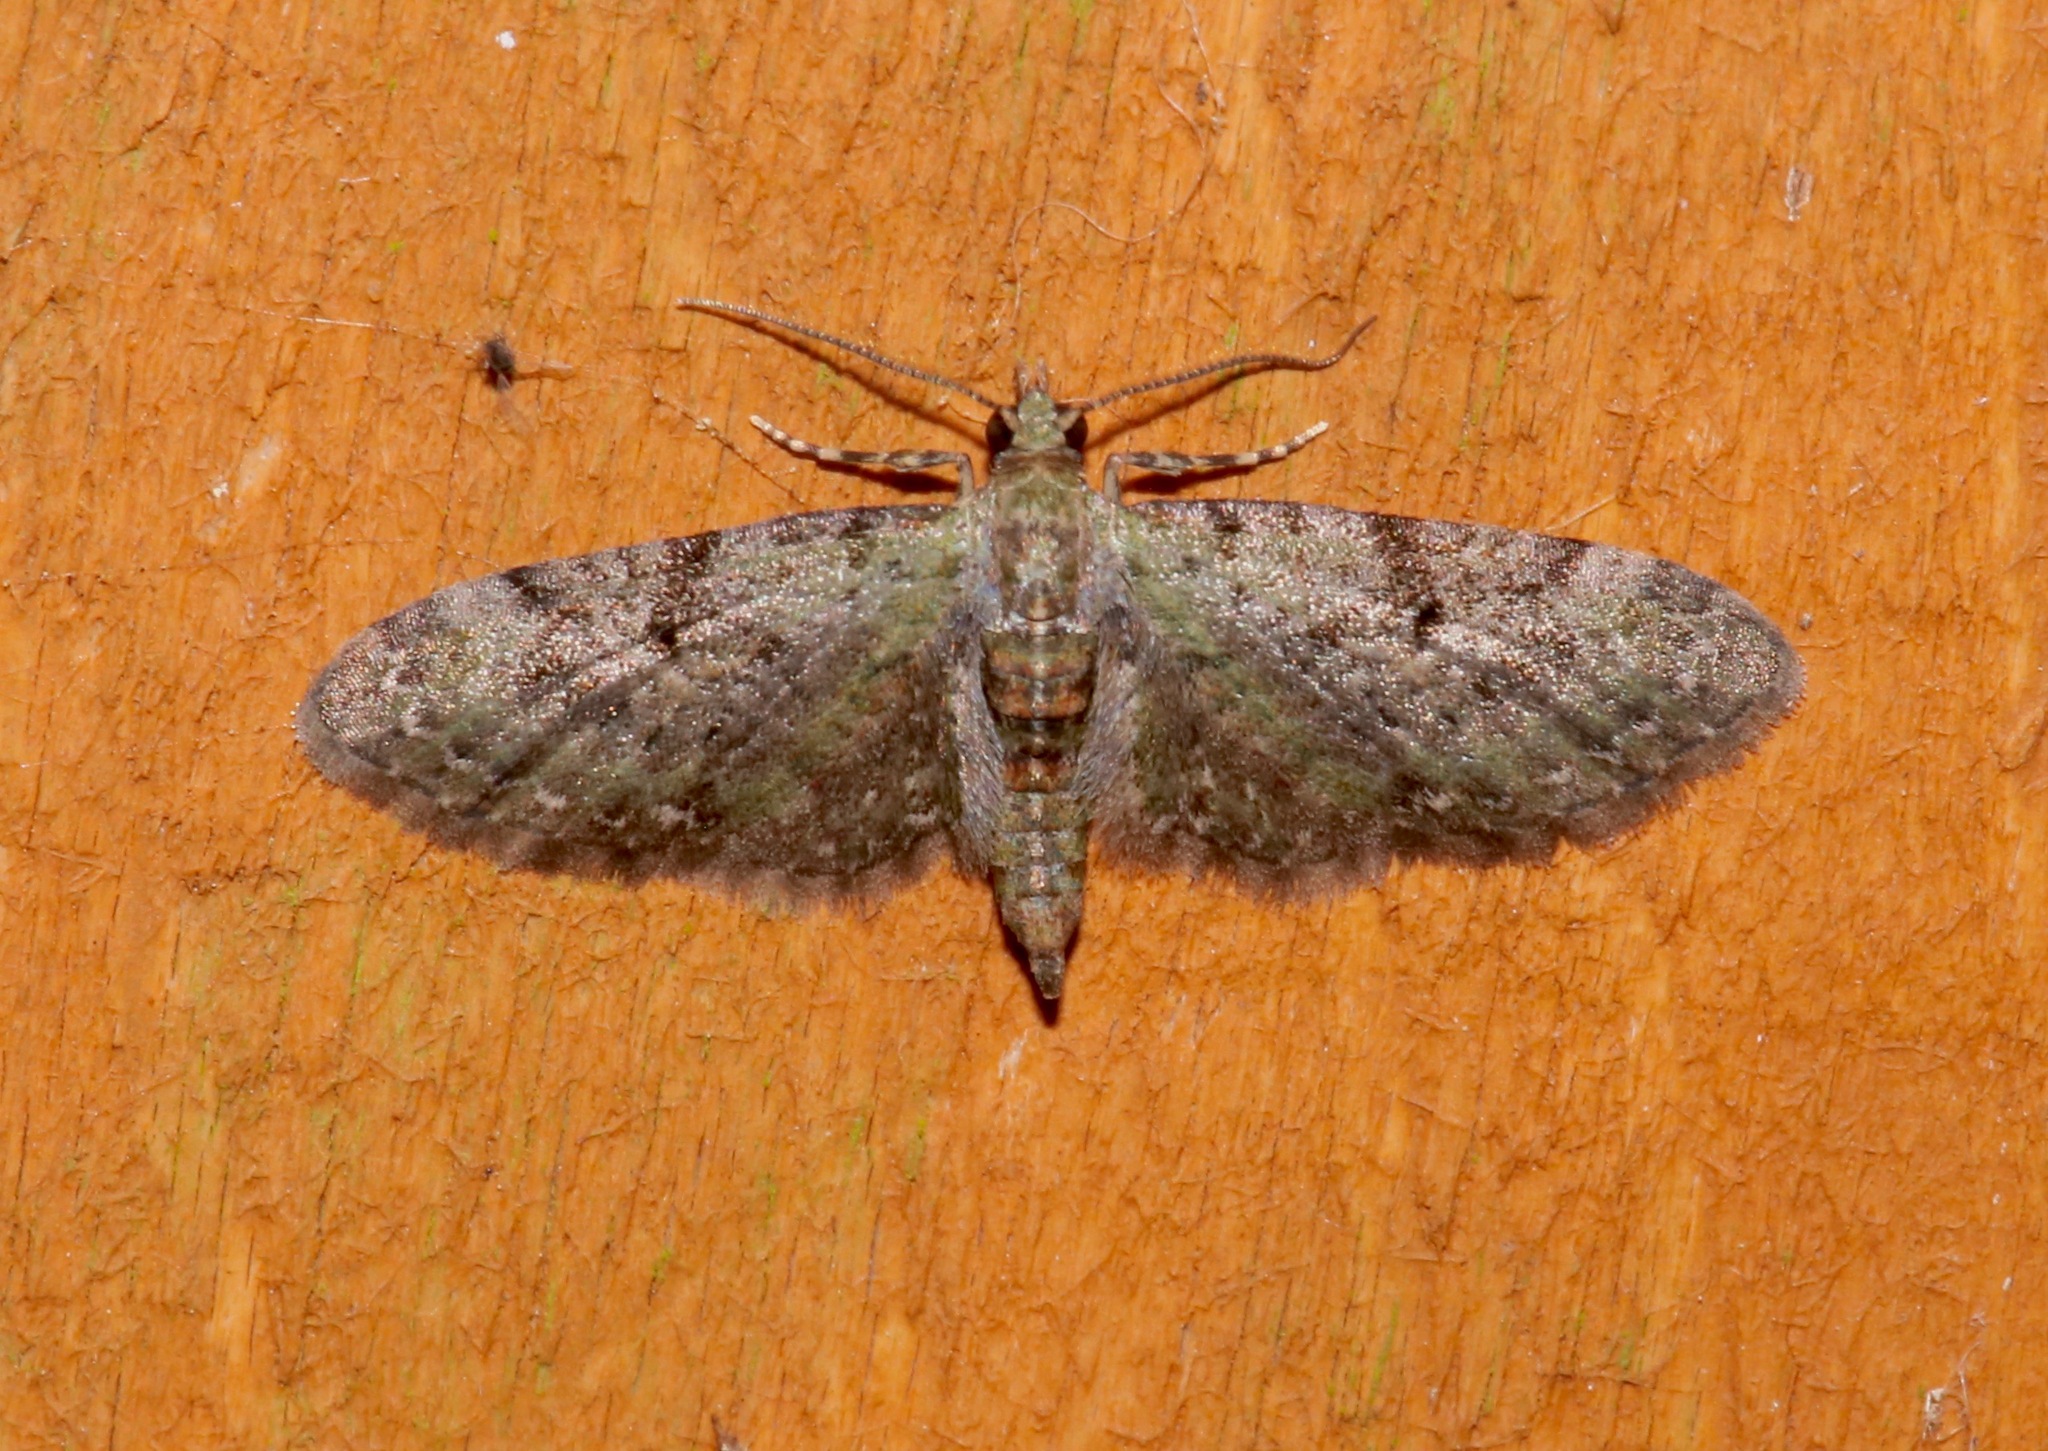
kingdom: Animalia
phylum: Arthropoda
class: Insecta
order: Lepidoptera
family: Geometridae
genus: Eupithecia
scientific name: Eupithecia miserulata
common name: Common eupithecia
